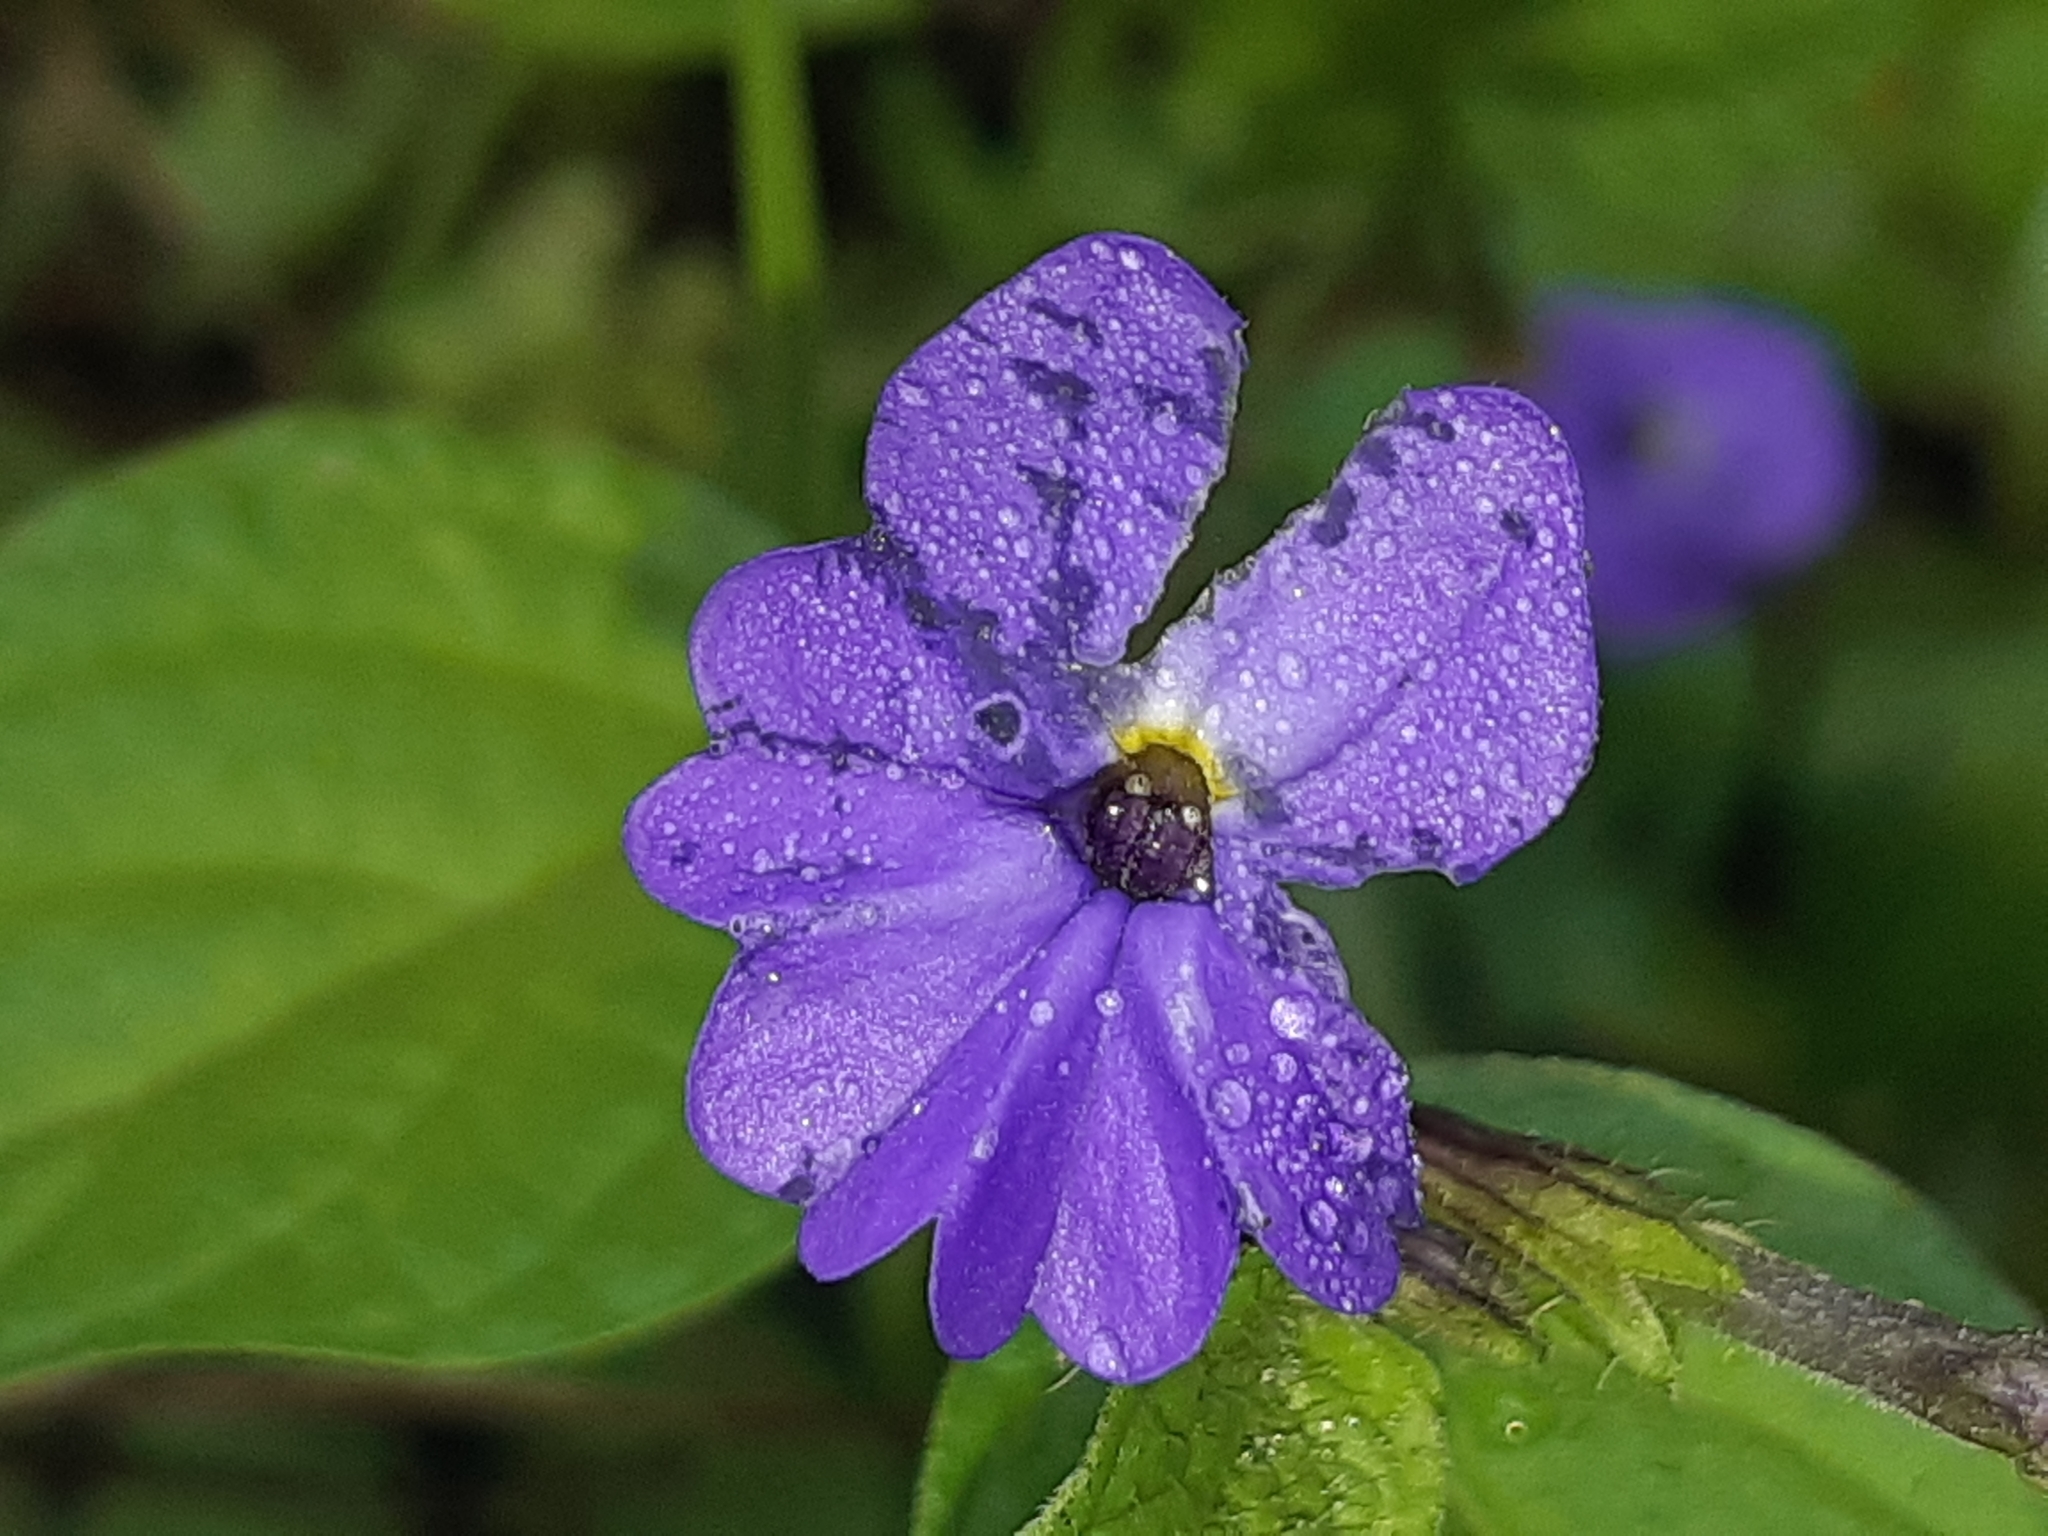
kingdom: Plantae
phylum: Tracheophyta
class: Magnoliopsida
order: Solanales
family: Solanaceae
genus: Browallia
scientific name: Browallia americana
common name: Jamaican forget-me-not
